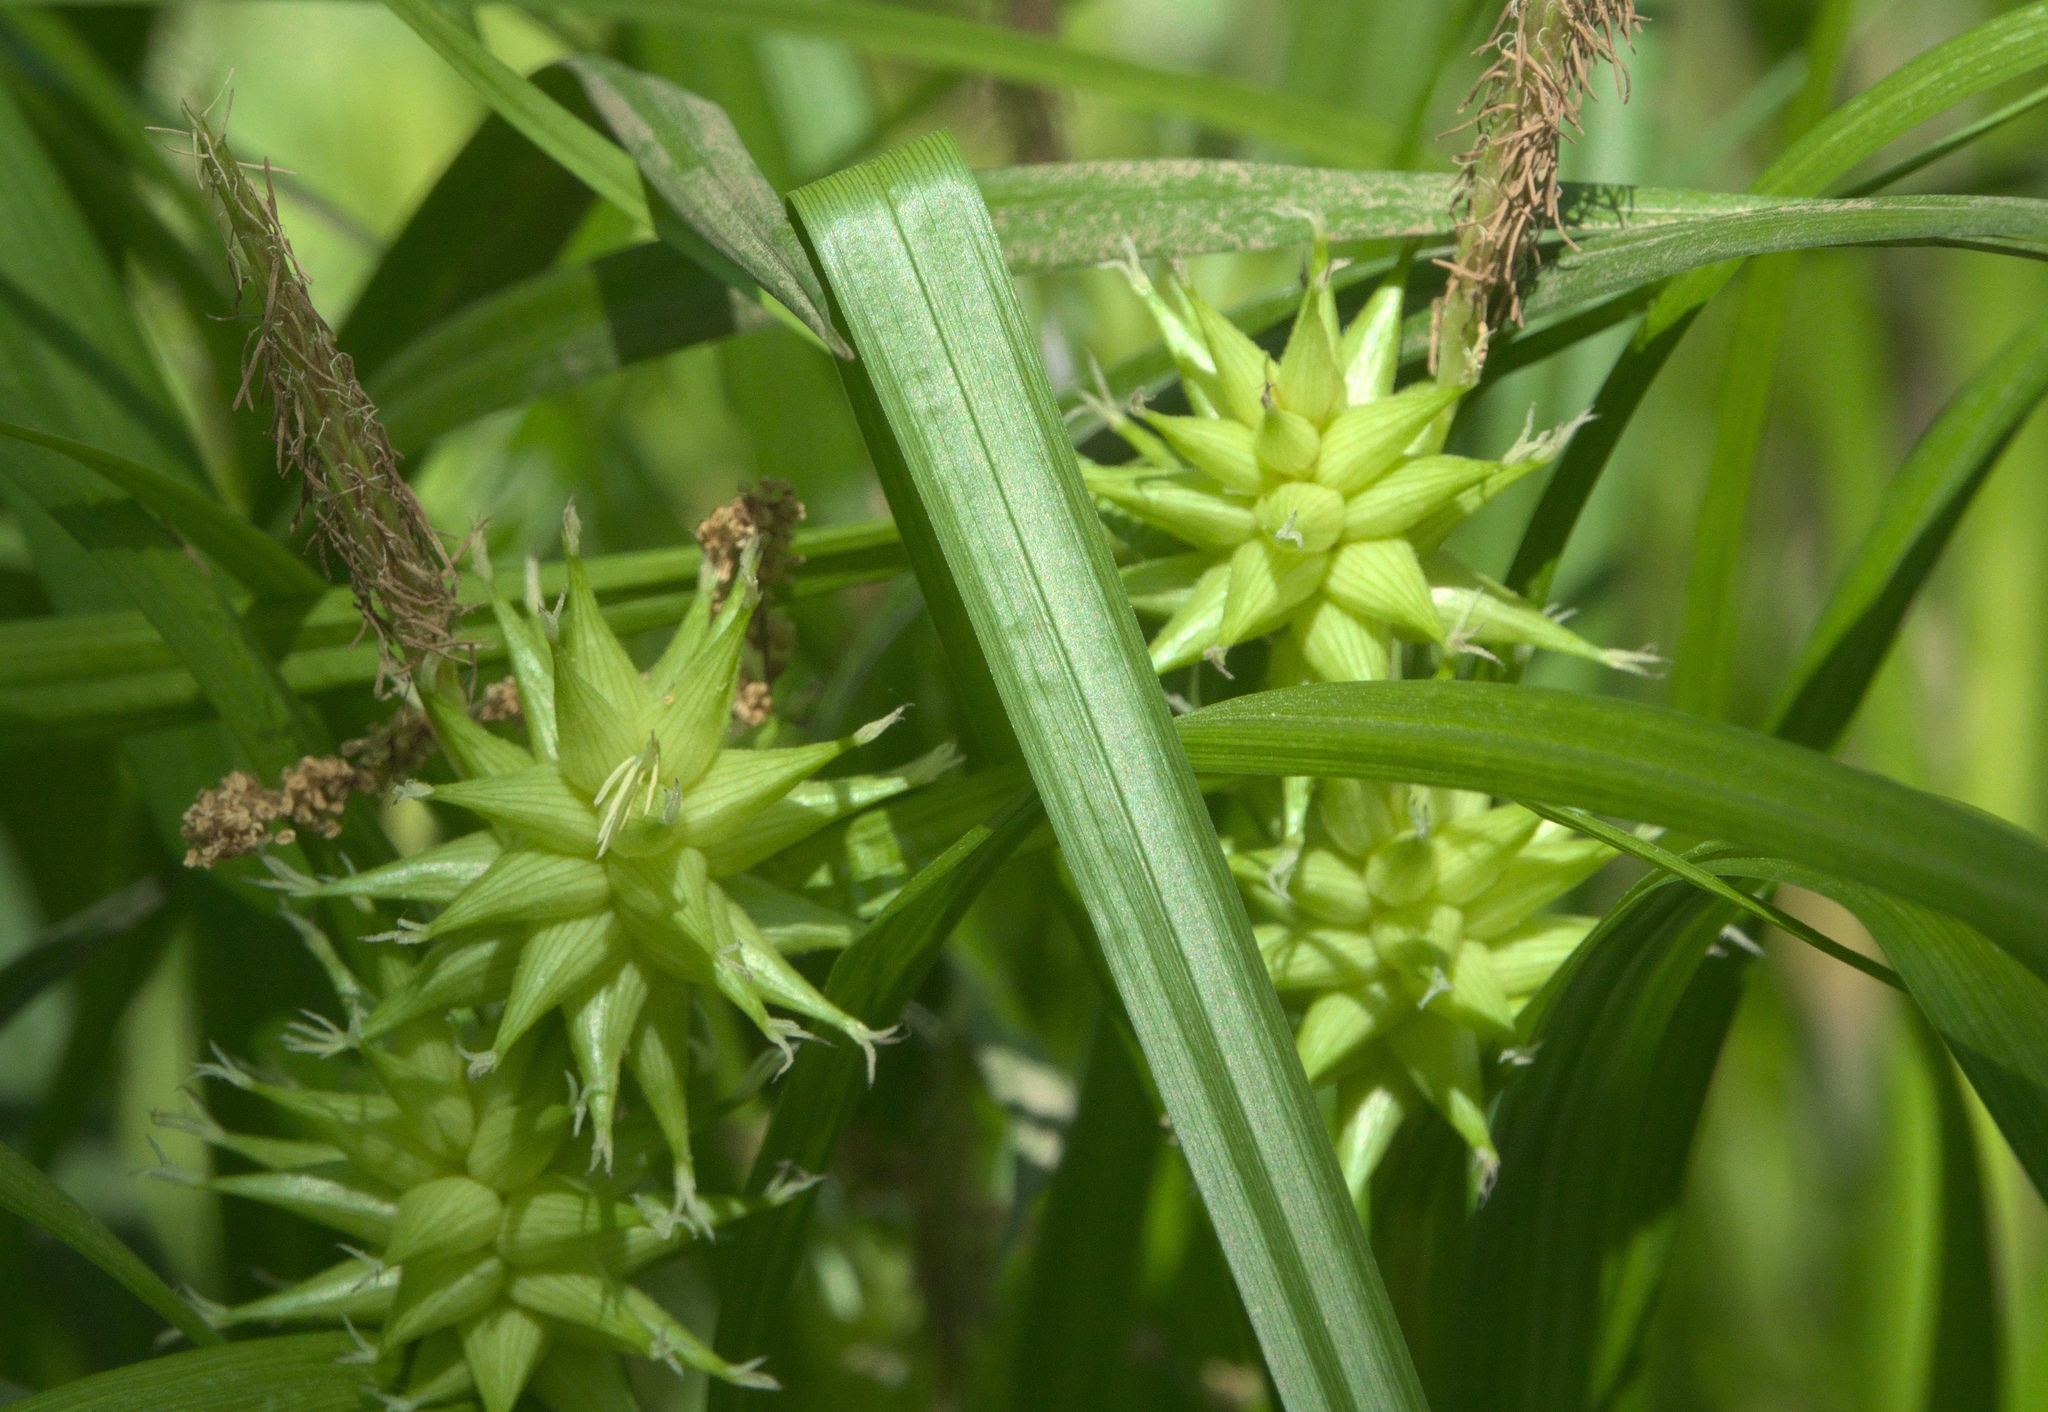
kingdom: Plantae
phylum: Tracheophyta
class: Liliopsida
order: Poales
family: Cyperaceae
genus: Carex
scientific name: Carex grayi
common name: Asa gray's sedge
